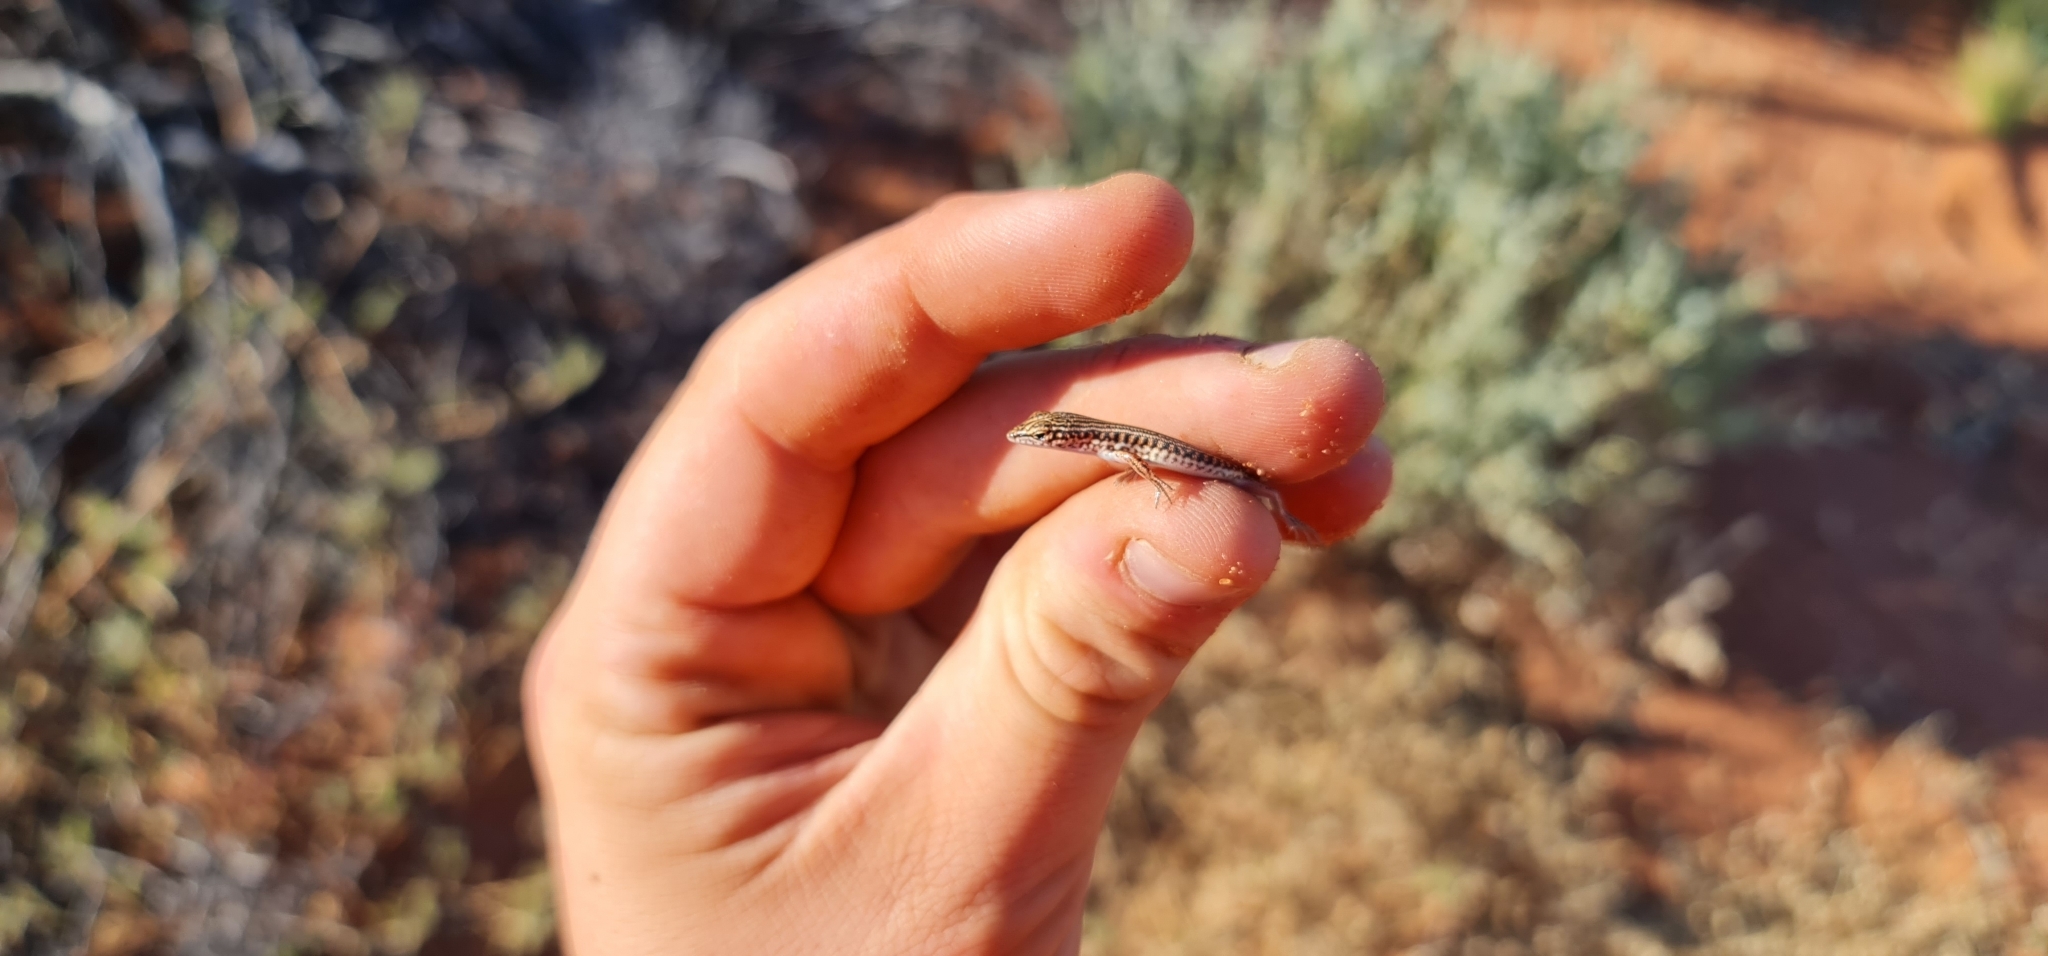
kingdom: Animalia
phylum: Chordata
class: Squamata
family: Scincidae
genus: Ctenotus
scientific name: Ctenotus taeniatus
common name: Eyrean ctenotus
